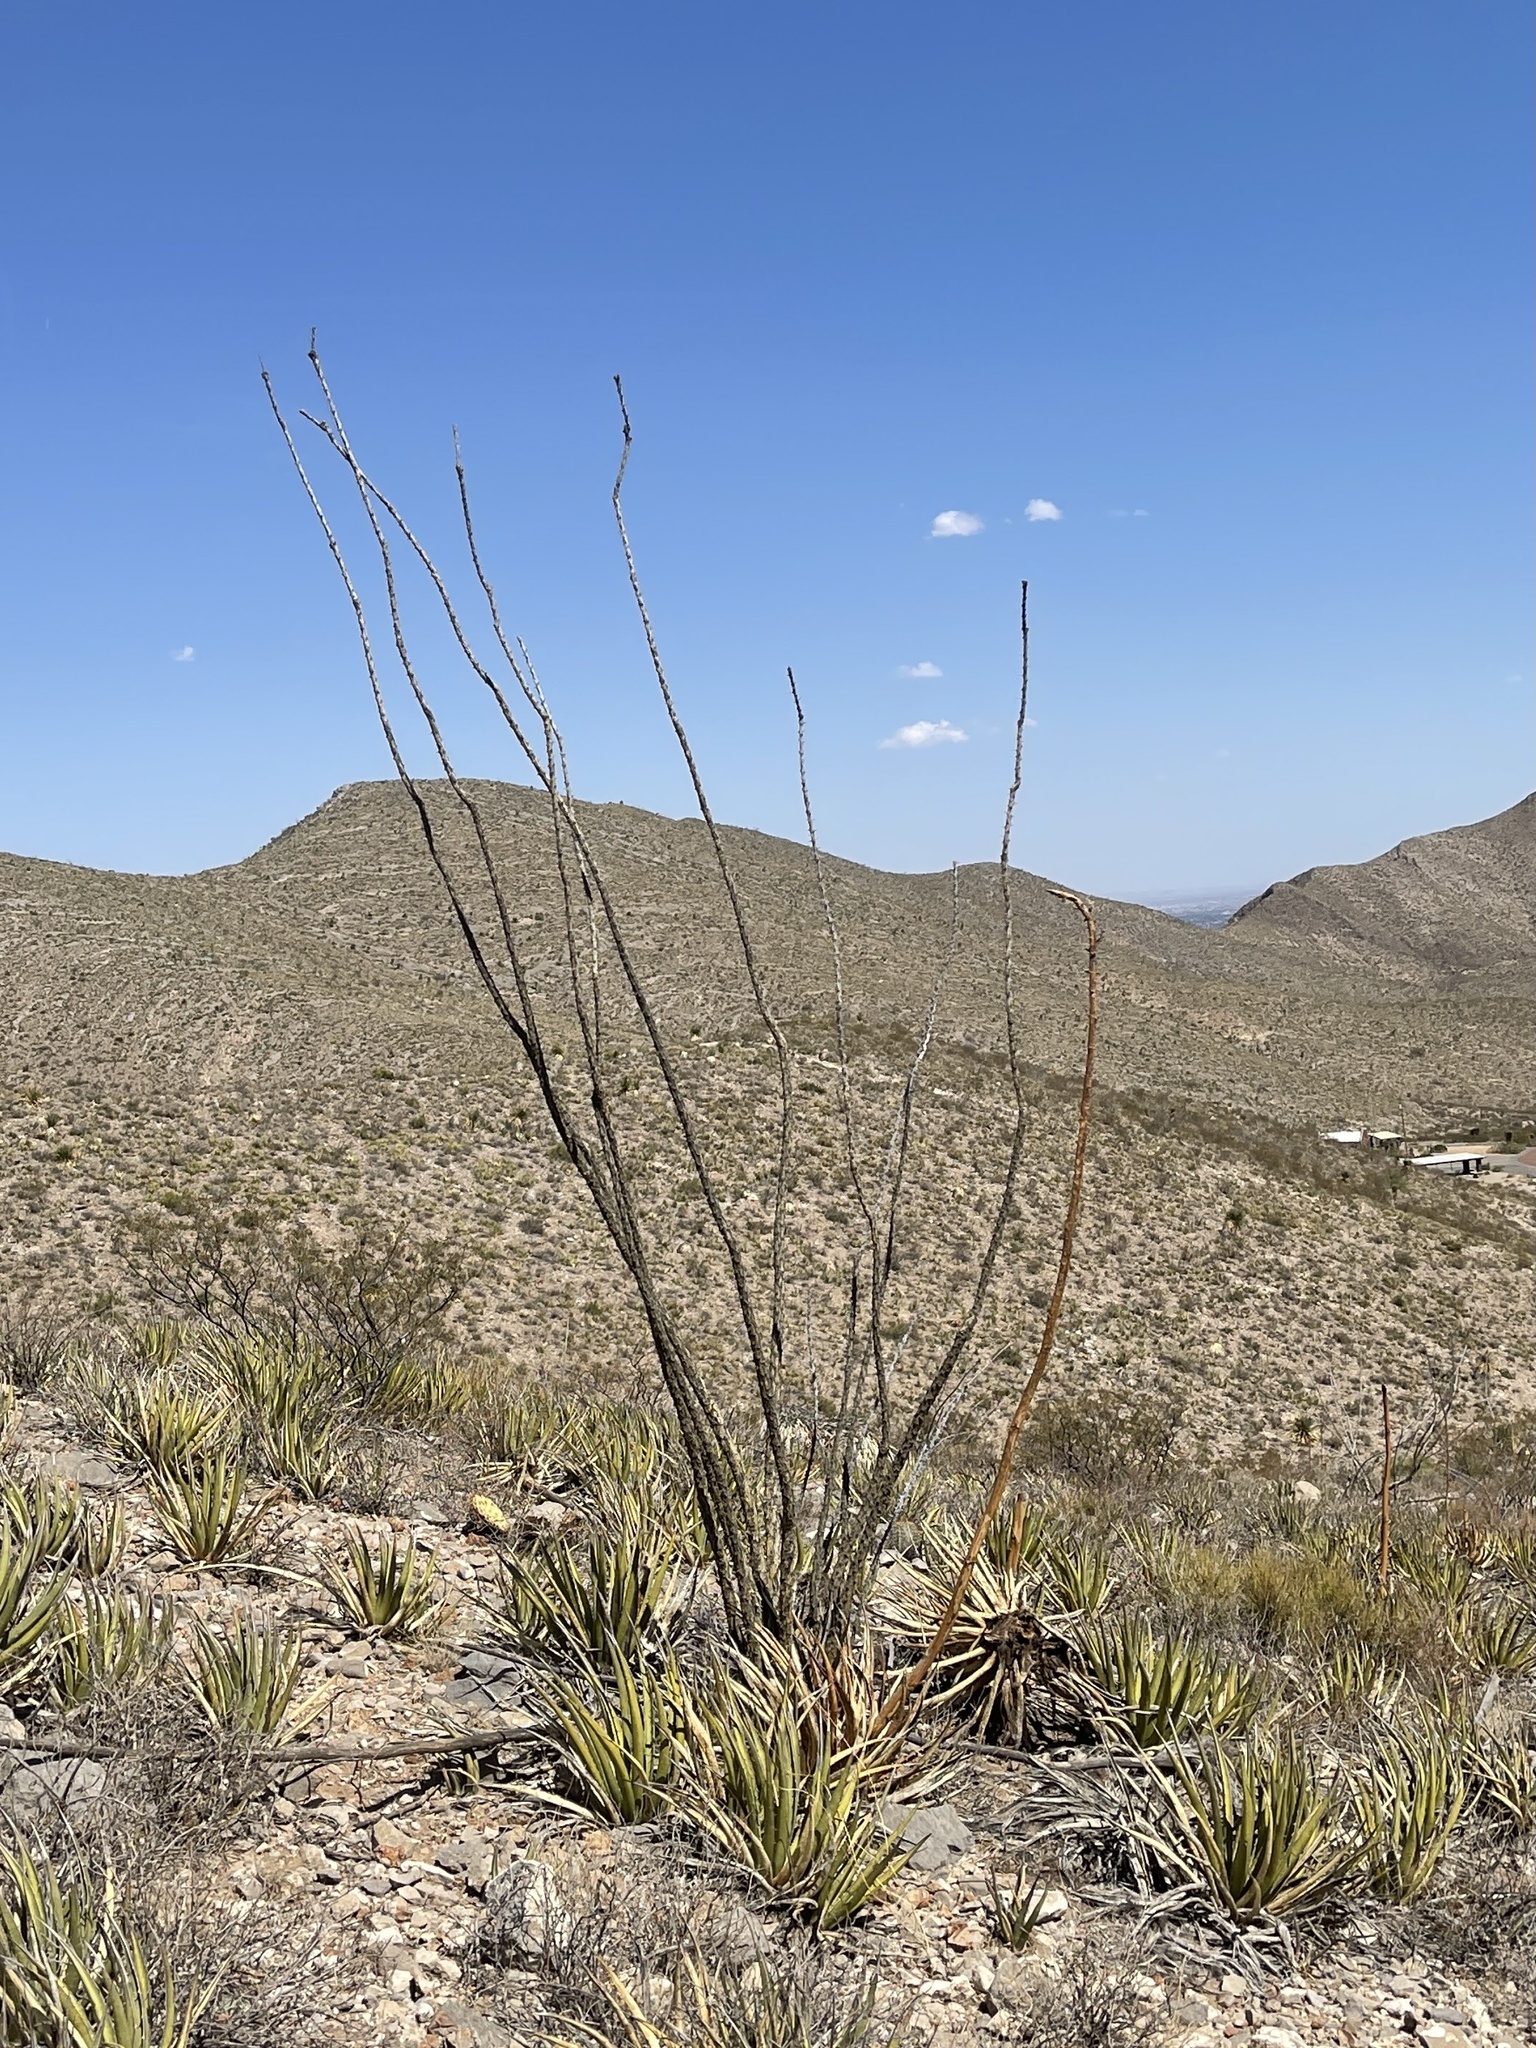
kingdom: Plantae
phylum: Tracheophyta
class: Magnoliopsida
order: Ericales
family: Fouquieriaceae
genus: Fouquieria
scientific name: Fouquieria splendens
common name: Vine-cactus
